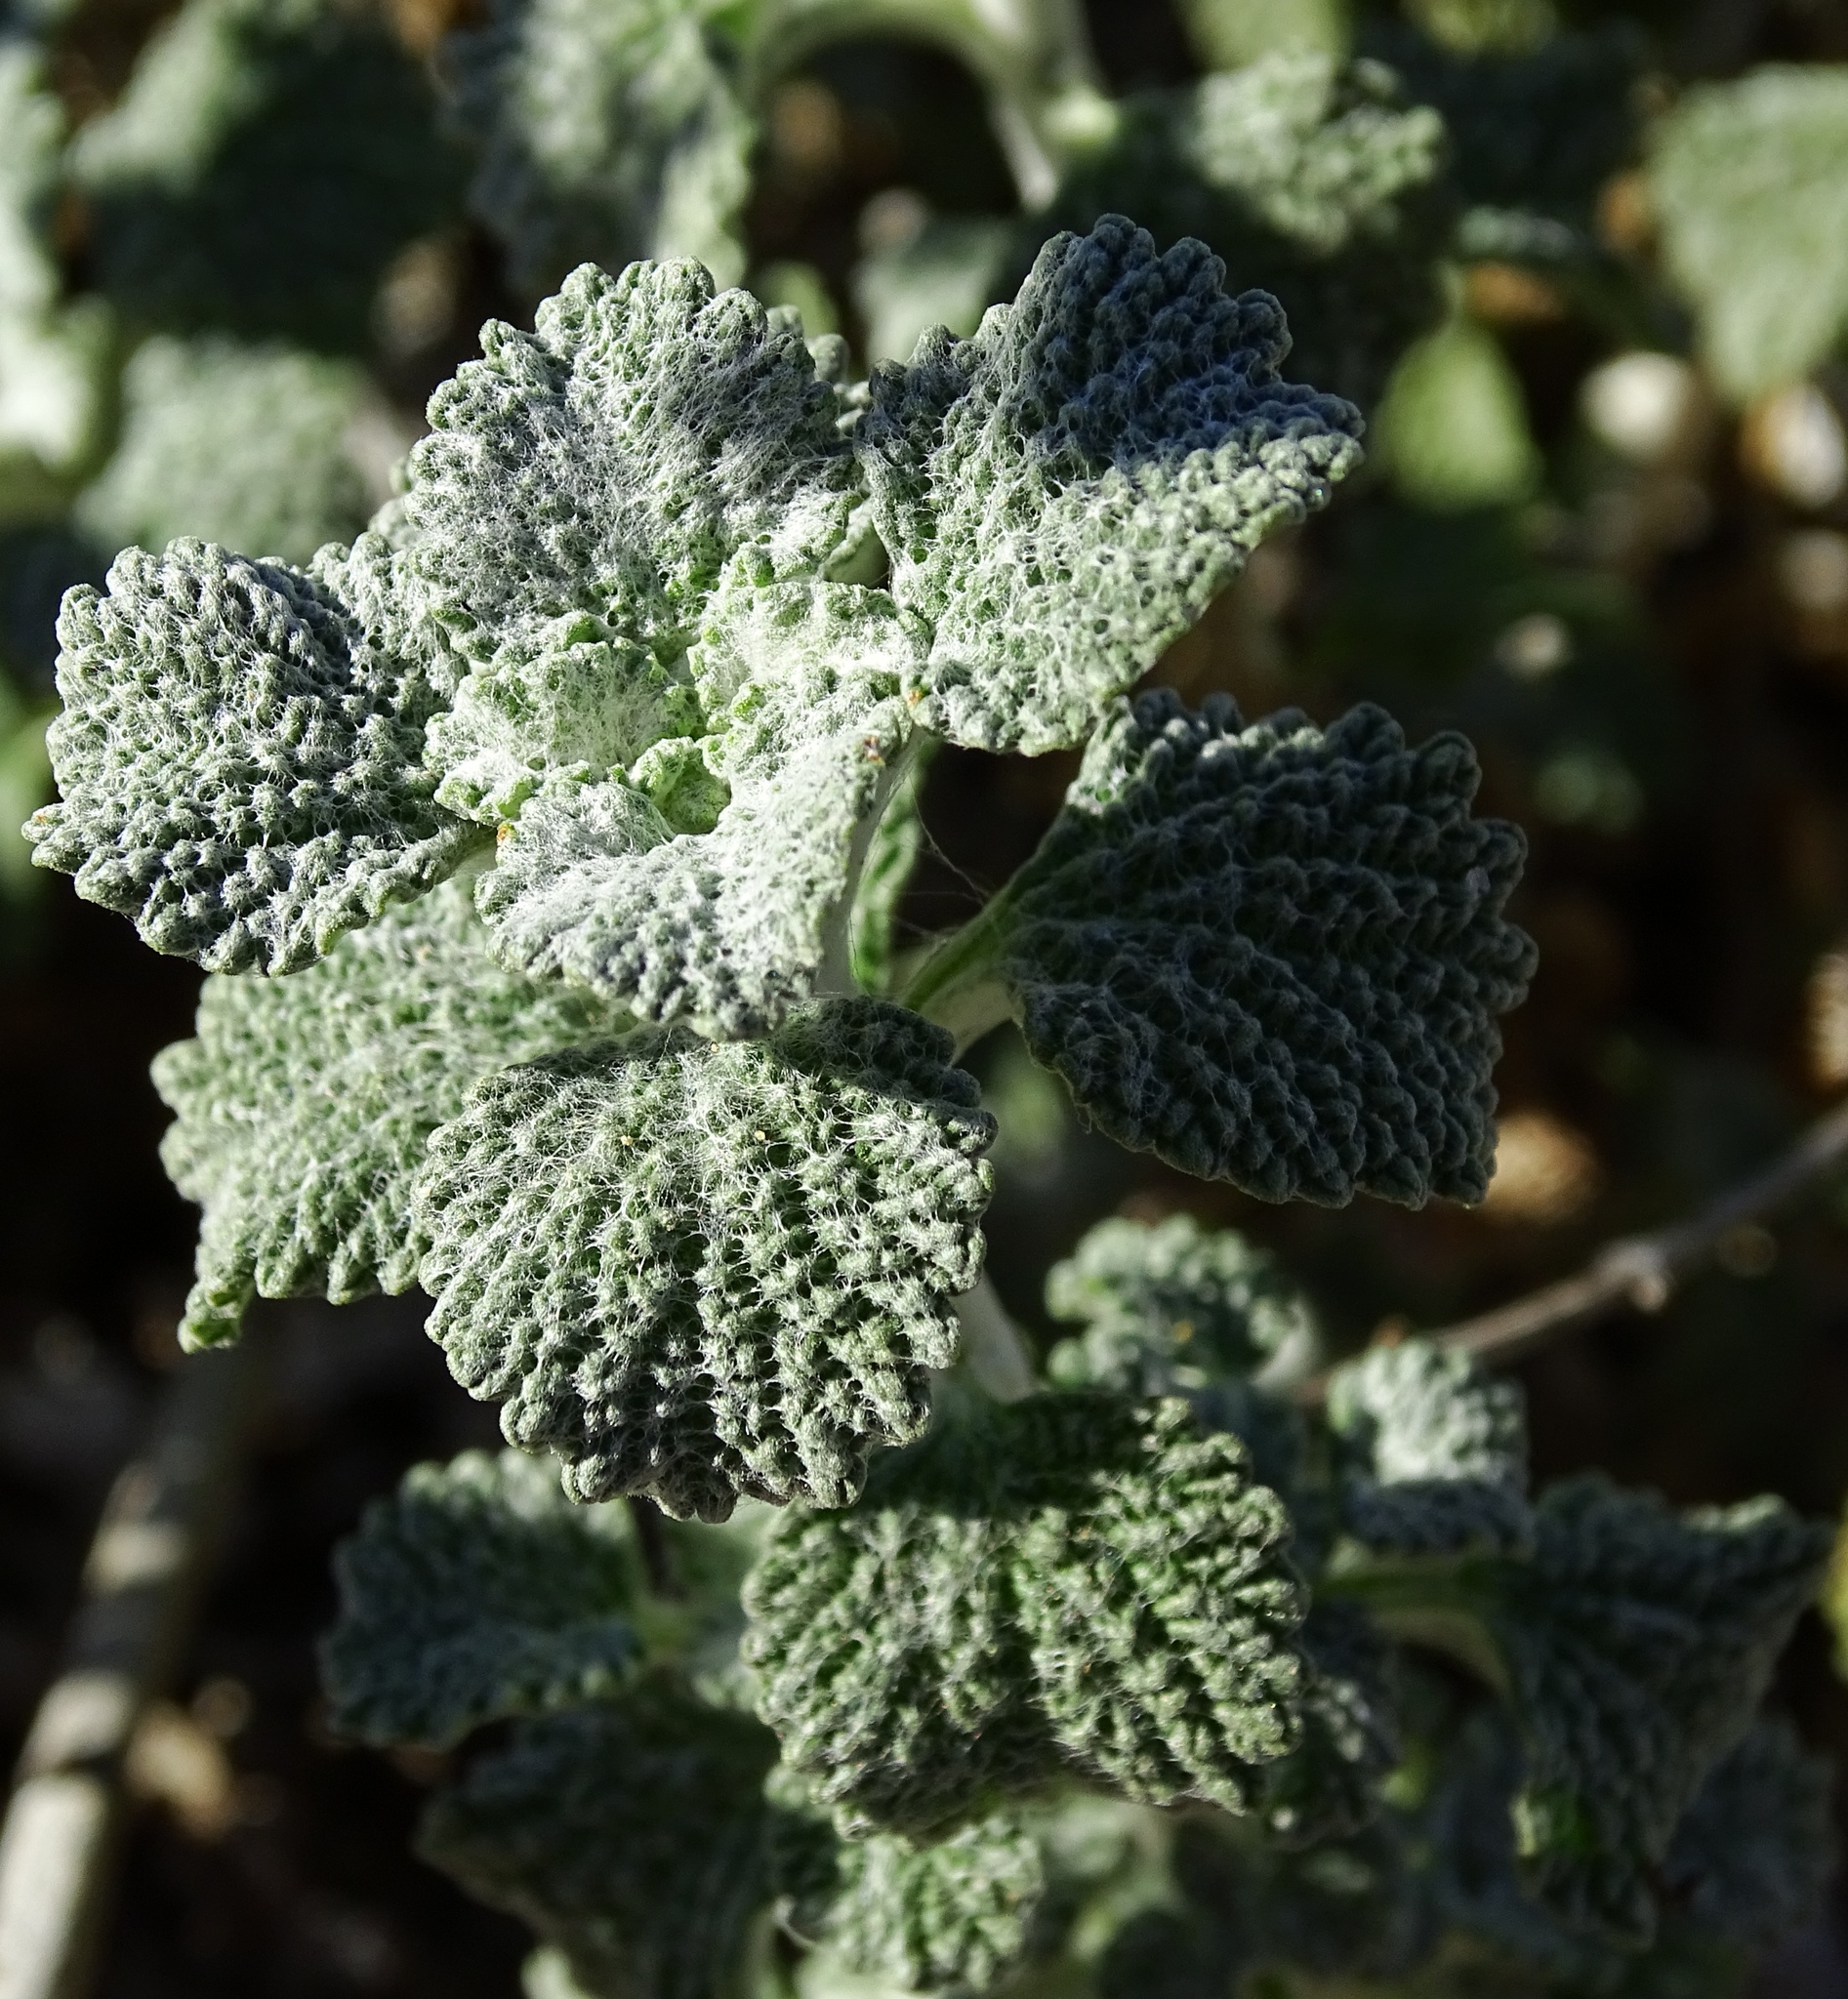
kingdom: Plantae
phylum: Tracheophyta
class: Magnoliopsida
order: Lamiales
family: Lamiaceae
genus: Marrubium
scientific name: Marrubium vulgare
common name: Horehound
